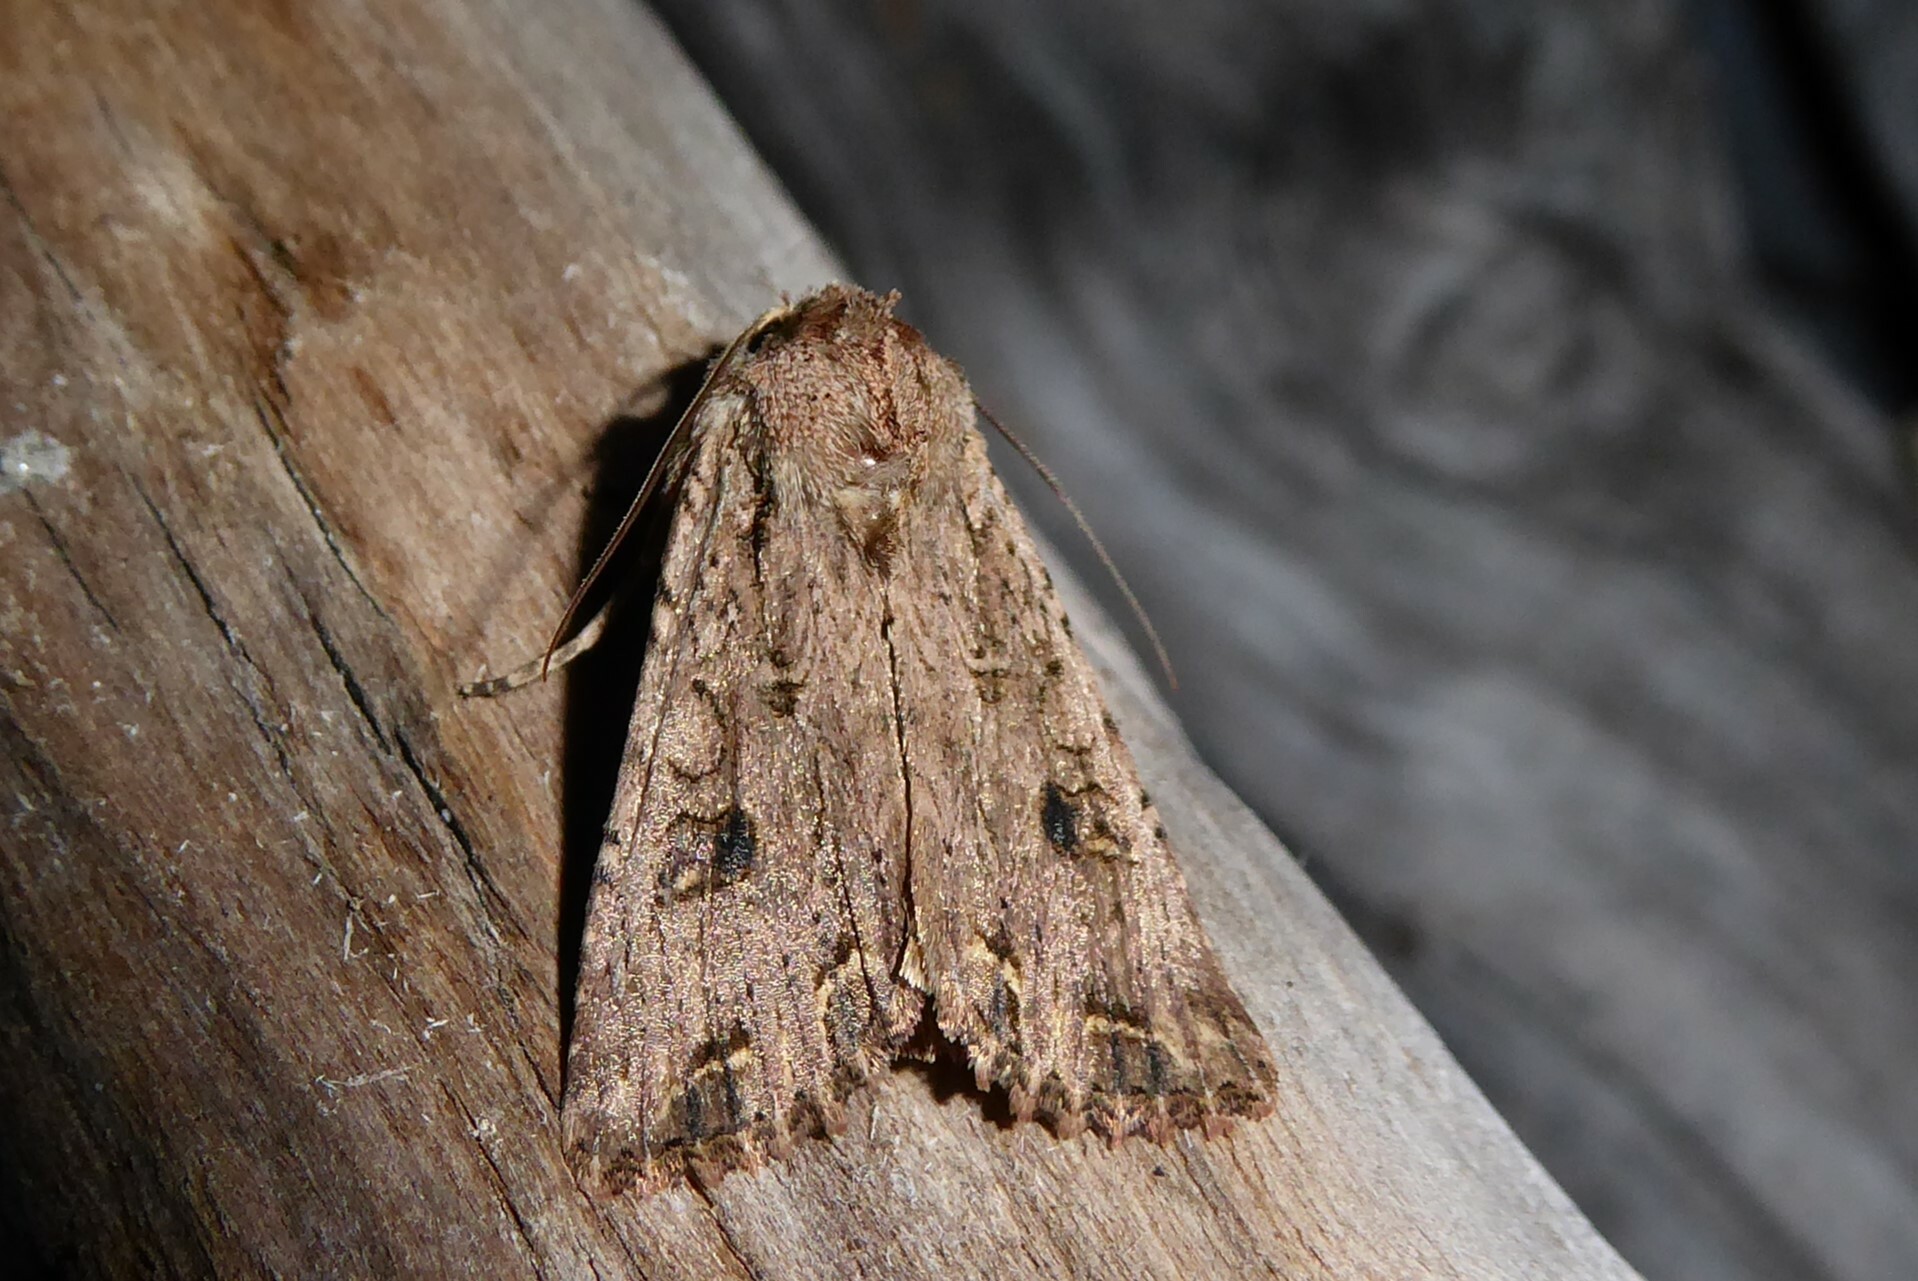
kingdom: Animalia
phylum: Arthropoda
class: Insecta
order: Lepidoptera
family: Noctuidae
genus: Ichneutica
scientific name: Ichneutica lignana
